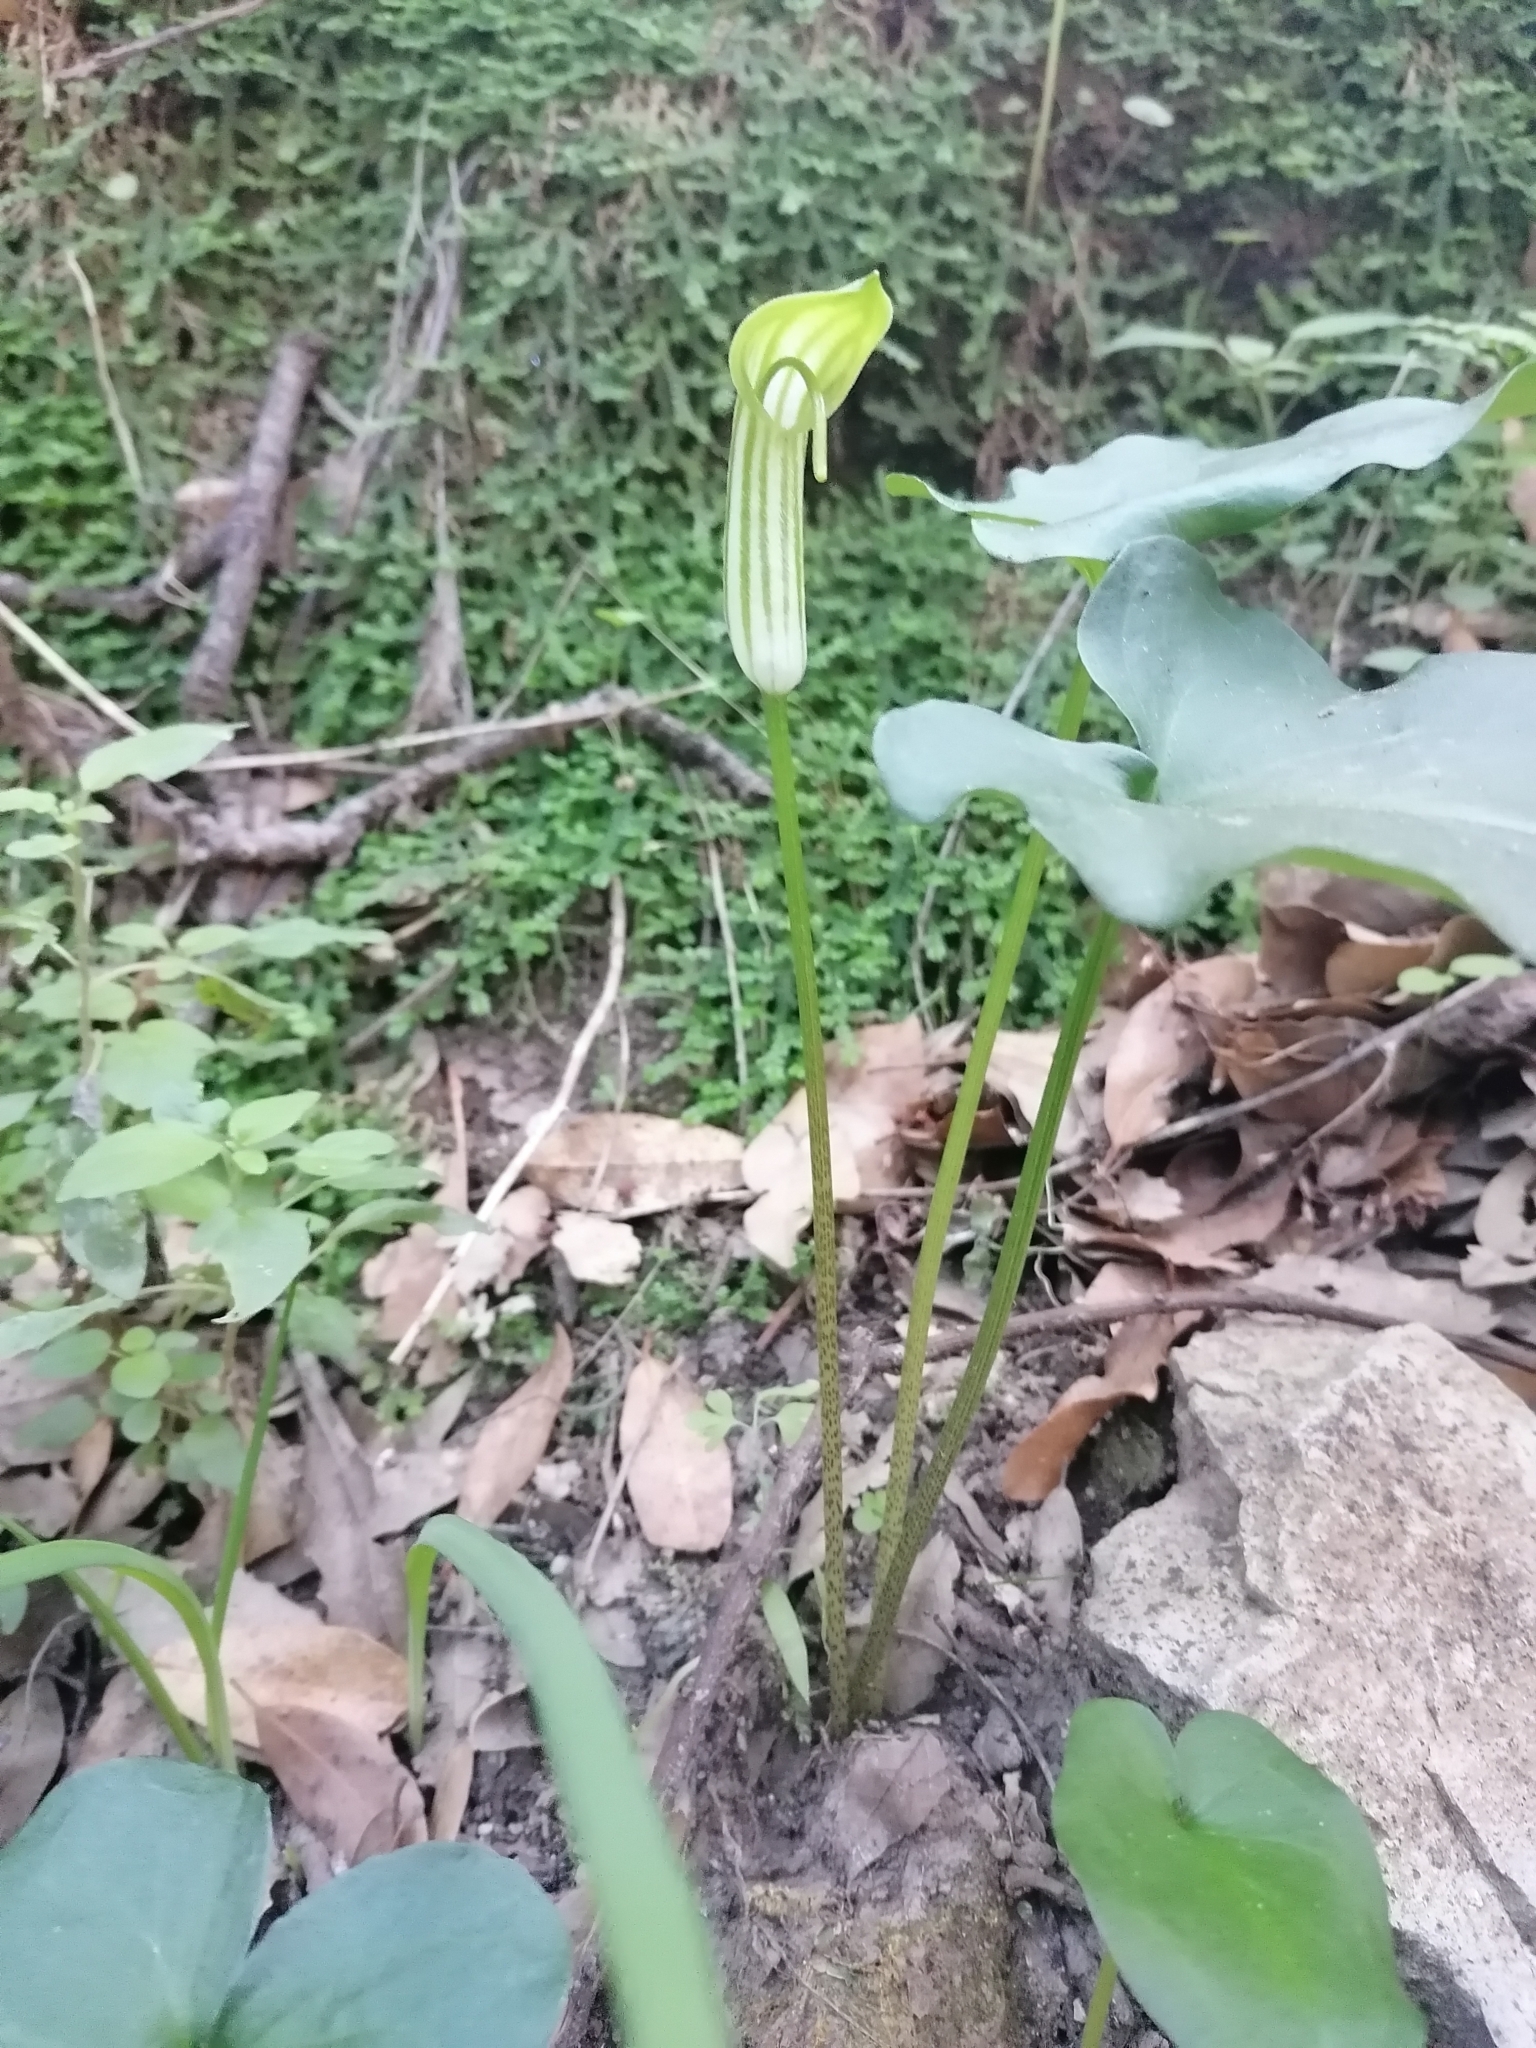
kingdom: Plantae
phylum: Tracheophyta
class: Liliopsida
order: Alismatales
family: Araceae
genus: Arisarum
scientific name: Arisarum vulgare
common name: Common arisarum
